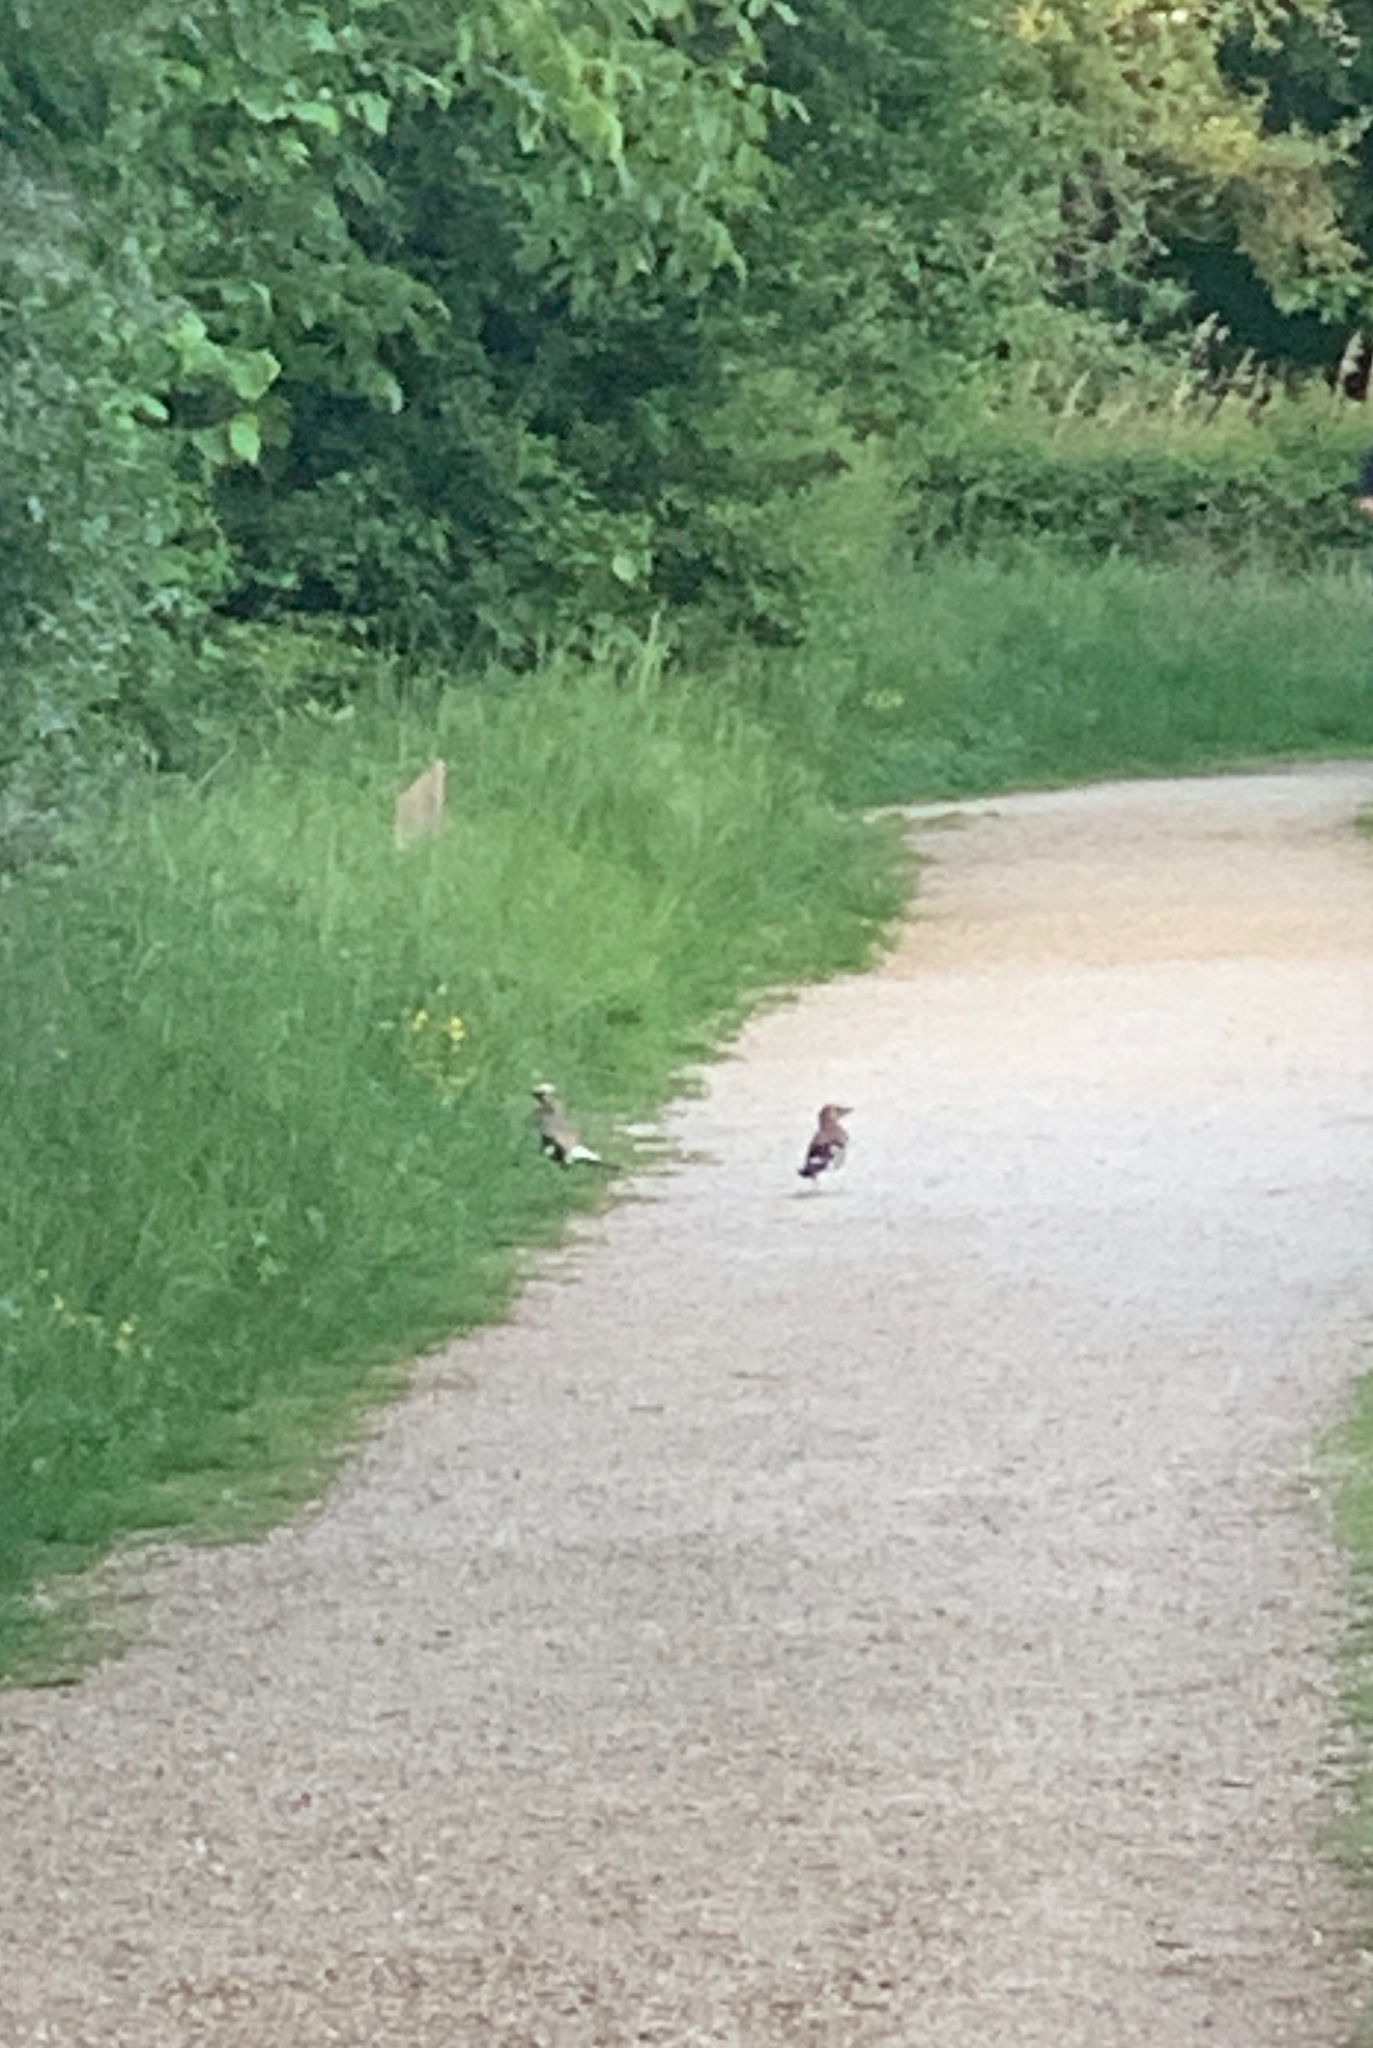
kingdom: Animalia
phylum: Chordata
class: Aves
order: Passeriformes
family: Corvidae
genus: Garrulus
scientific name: Garrulus glandarius
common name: Eurasian jay
